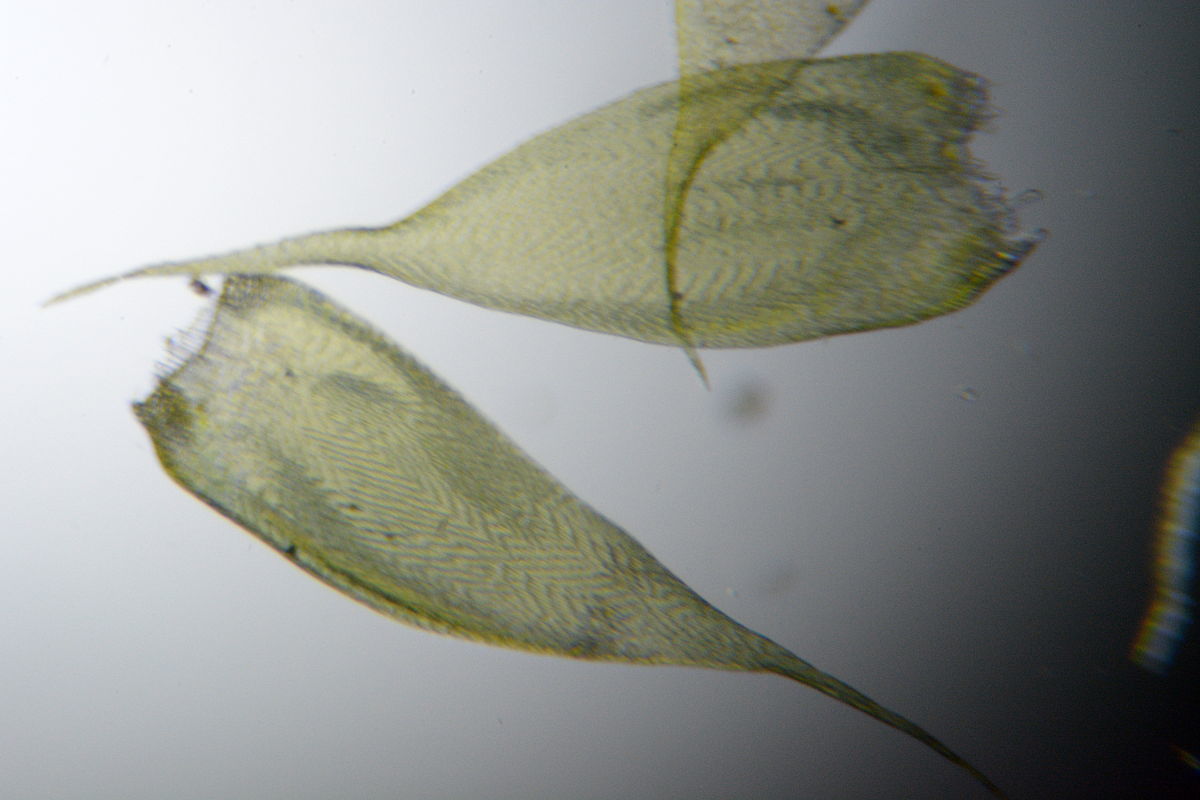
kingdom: Plantae
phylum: Bryophyta
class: Bryopsida
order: Hypnales
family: Hypnaceae
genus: Hypnum
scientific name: Hypnum cupressiforme
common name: Cypress-leaved plait-moss
